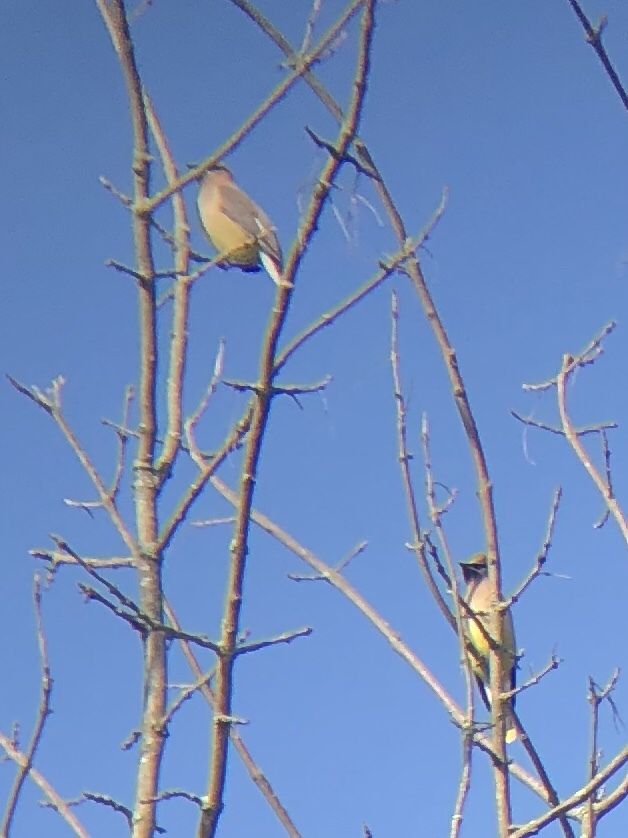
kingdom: Animalia
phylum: Chordata
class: Aves
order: Passeriformes
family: Bombycillidae
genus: Bombycilla
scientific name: Bombycilla cedrorum
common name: Cedar waxwing
